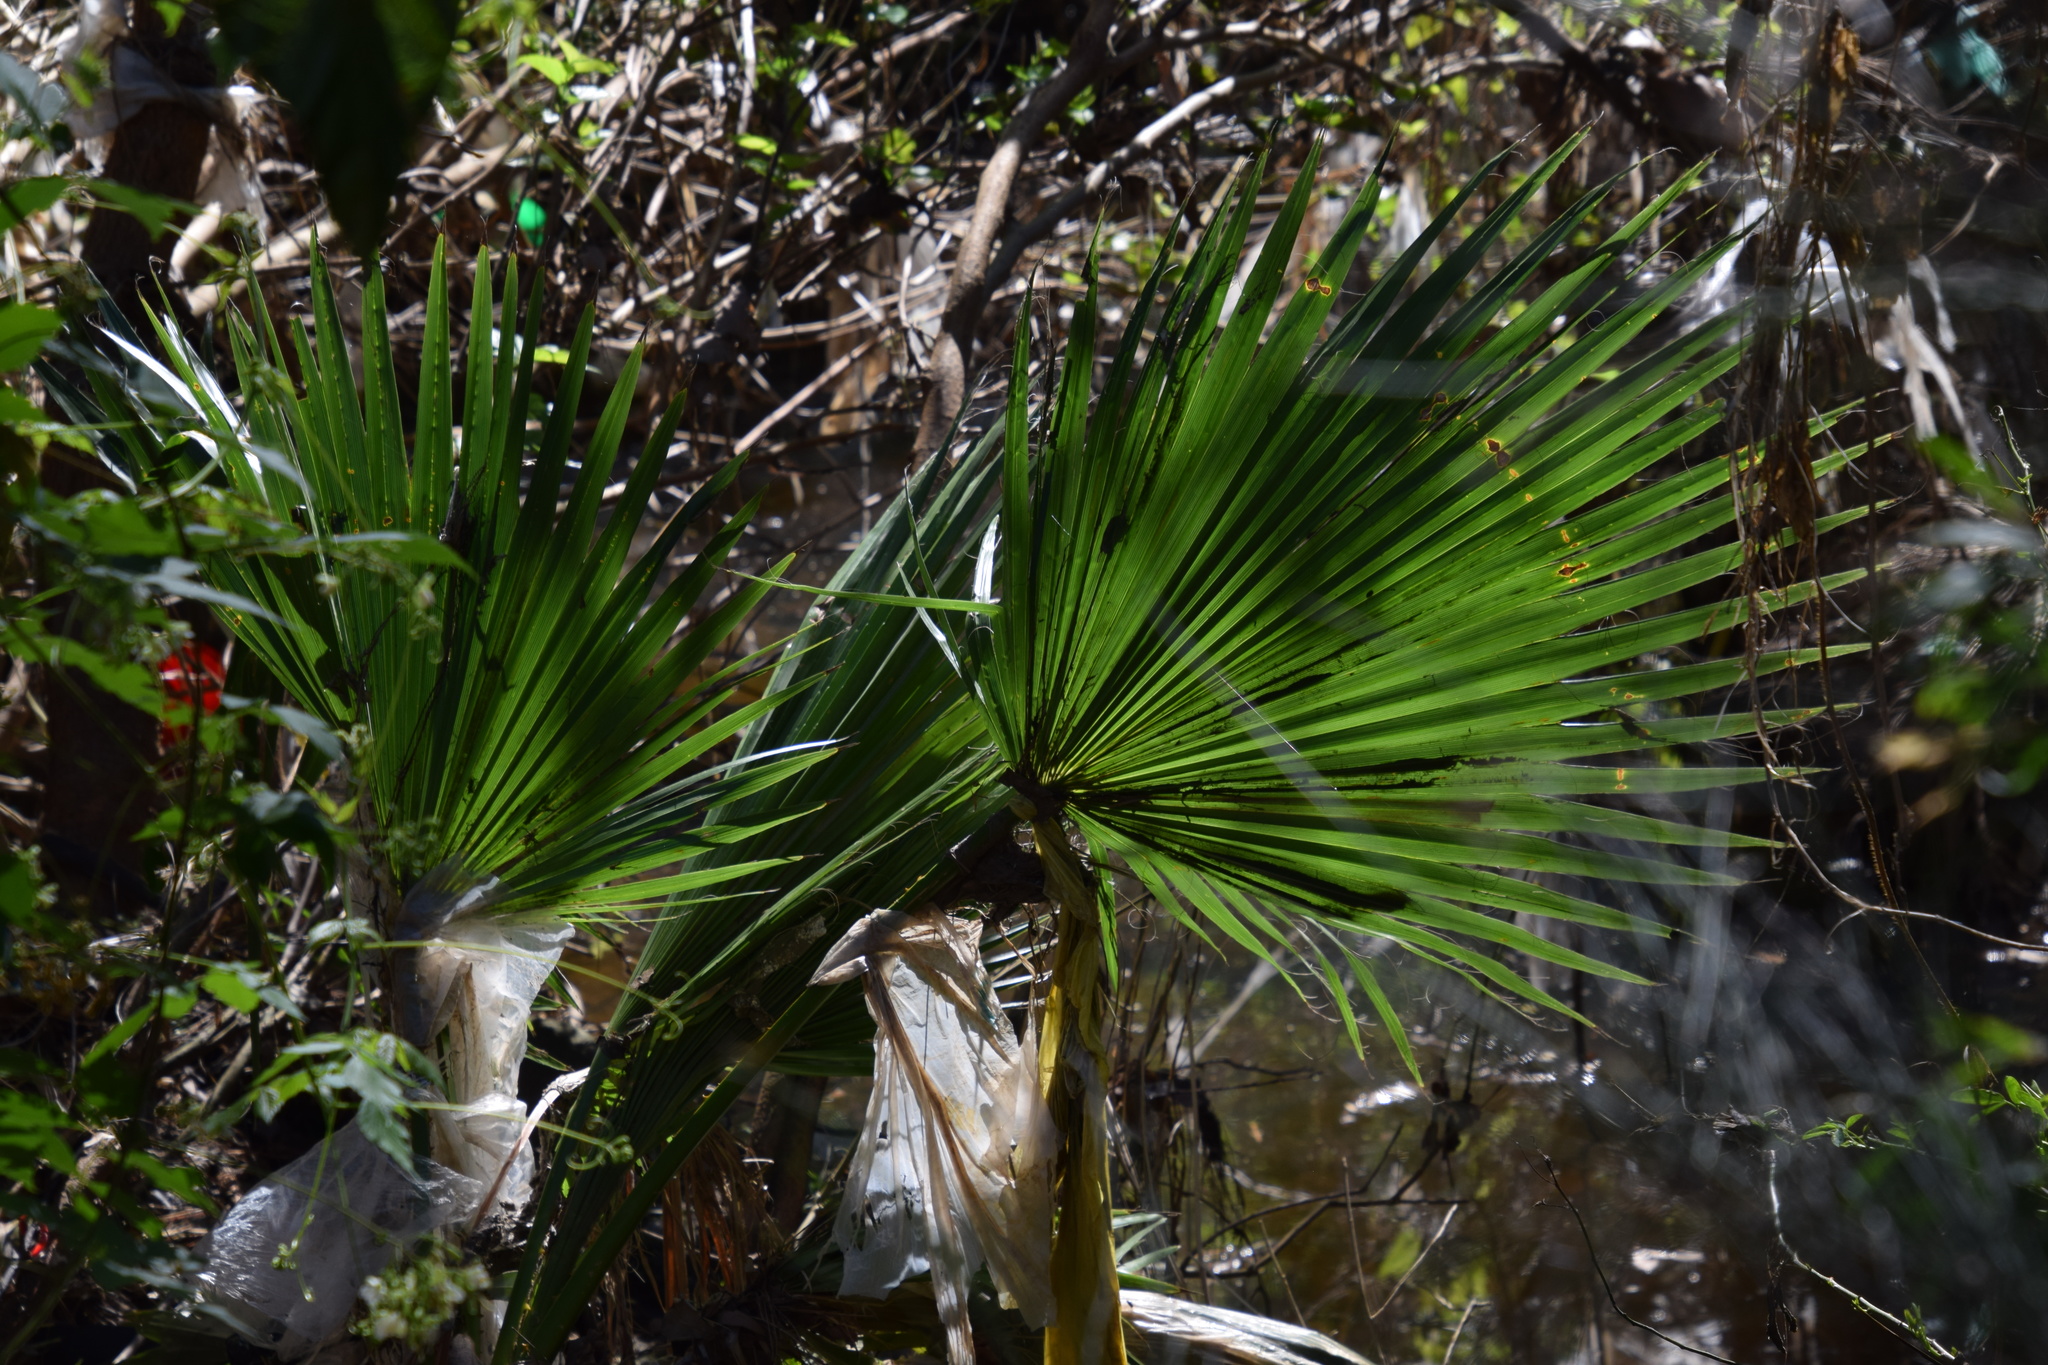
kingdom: Plantae
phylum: Tracheophyta
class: Liliopsida
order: Arecales
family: Arecaceae
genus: Livistona
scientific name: Livistona australis
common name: Cabbage fan palm
